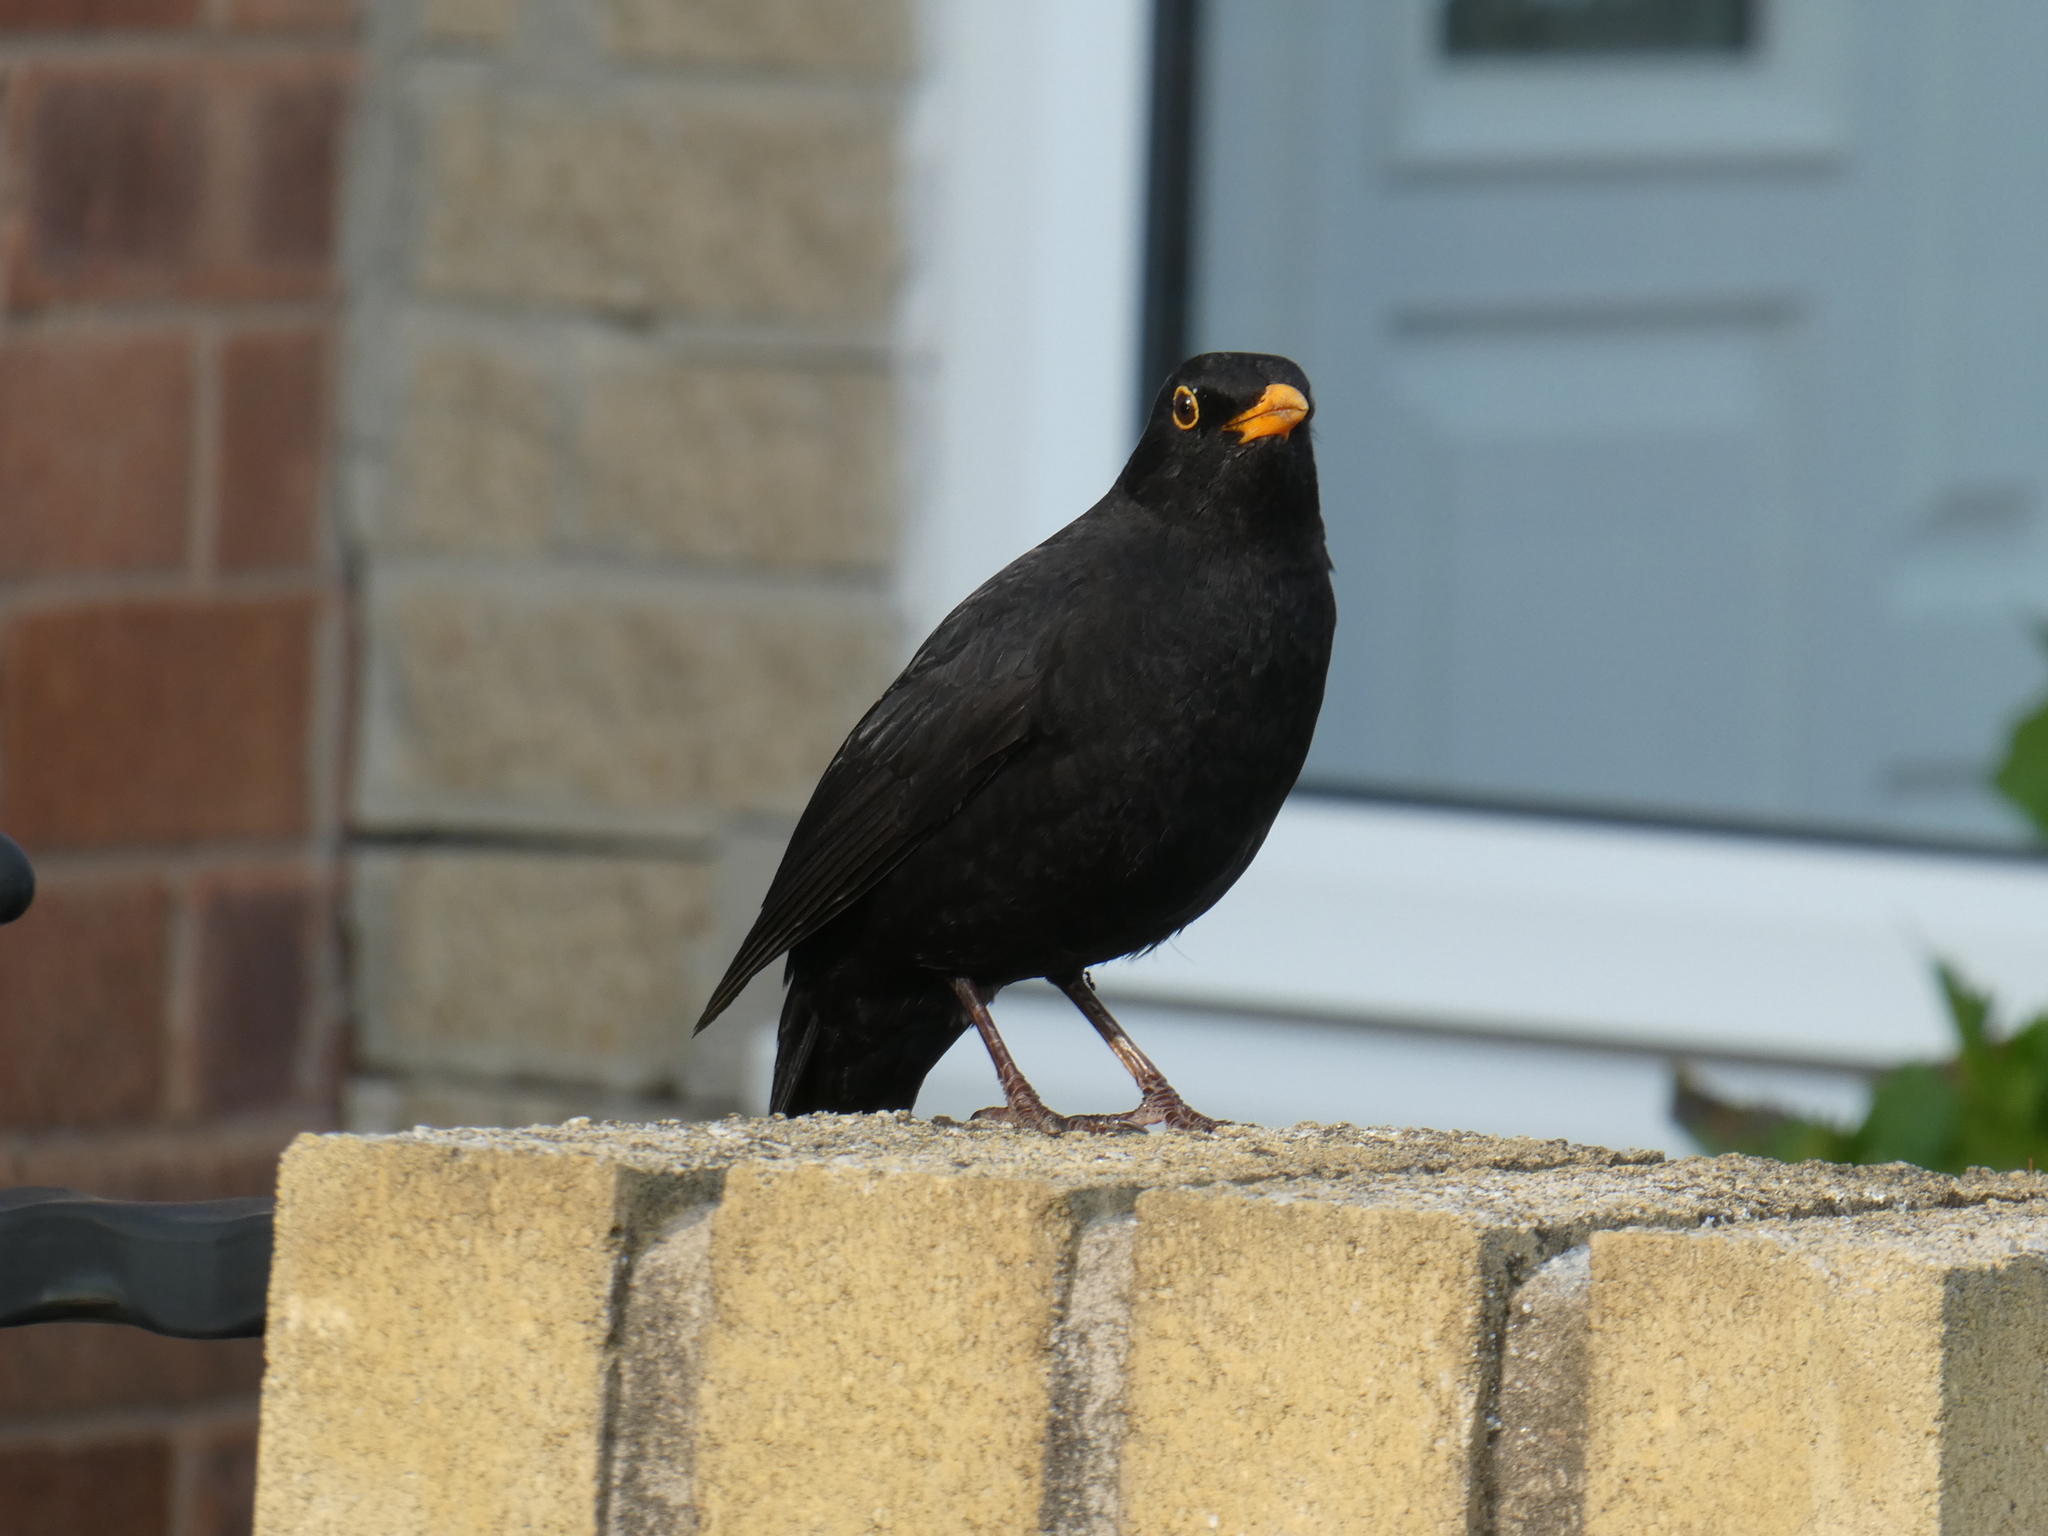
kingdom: Animalia
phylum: Chordata
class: Aves
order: Passeriformes
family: Turdidae
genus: Turdus
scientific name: Turdus merula
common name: Common blackbird
